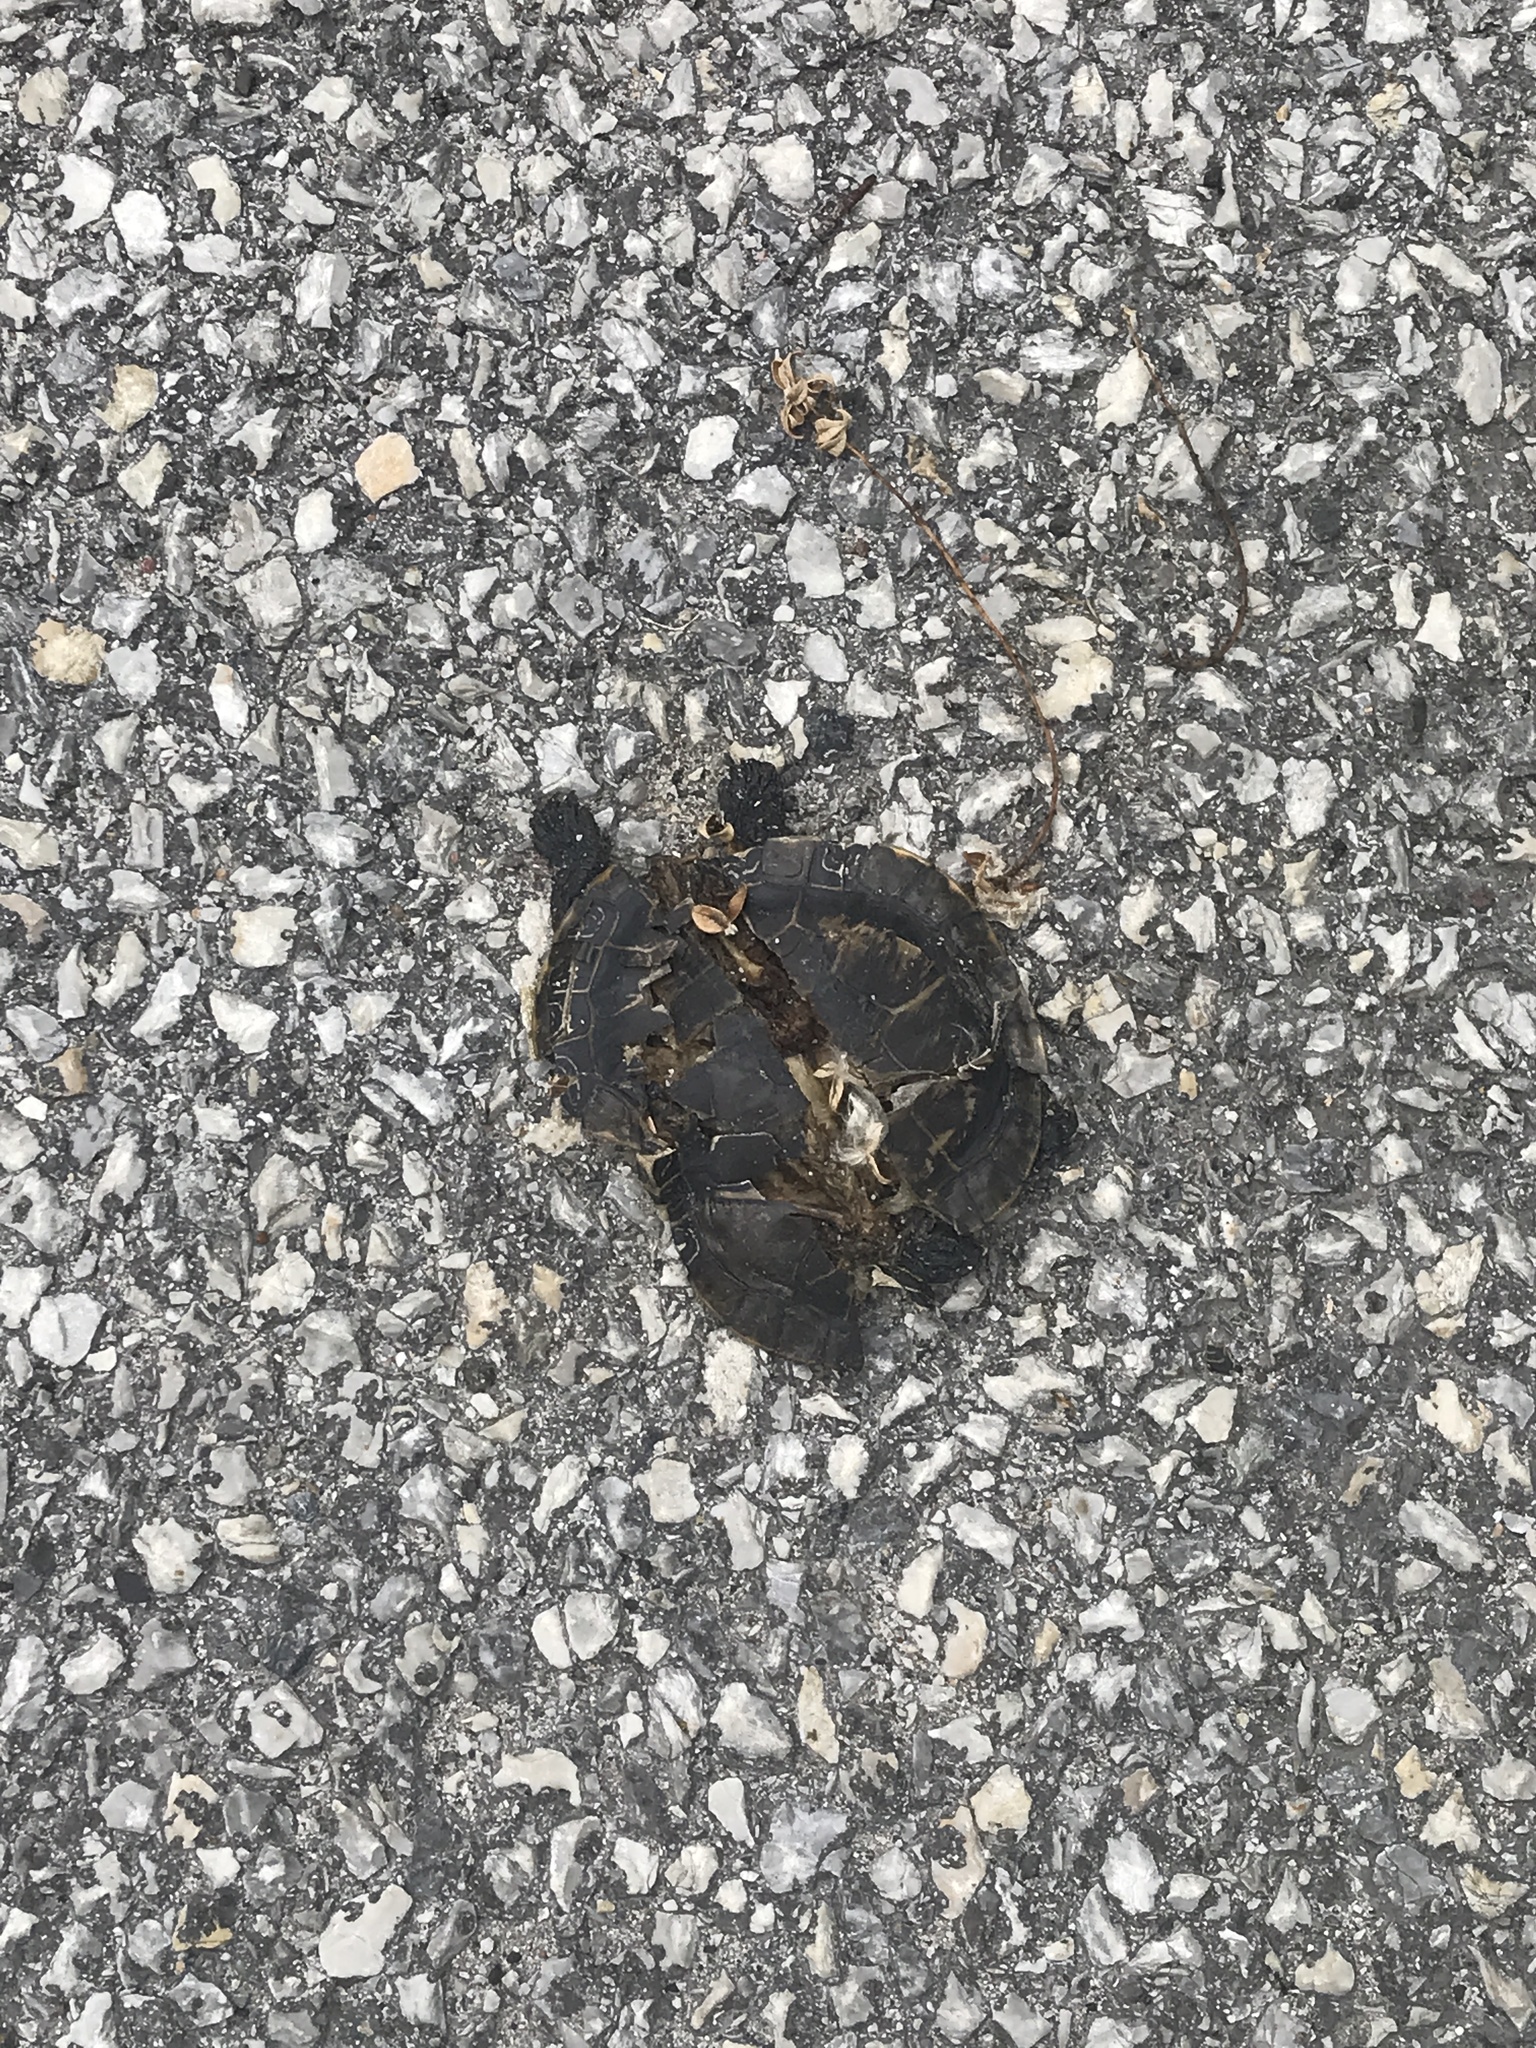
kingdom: Animalia
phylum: Chordata
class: Testudines
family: Emydidae
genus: Chrysemys
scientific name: Chrysemys picta
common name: Painted turtle
